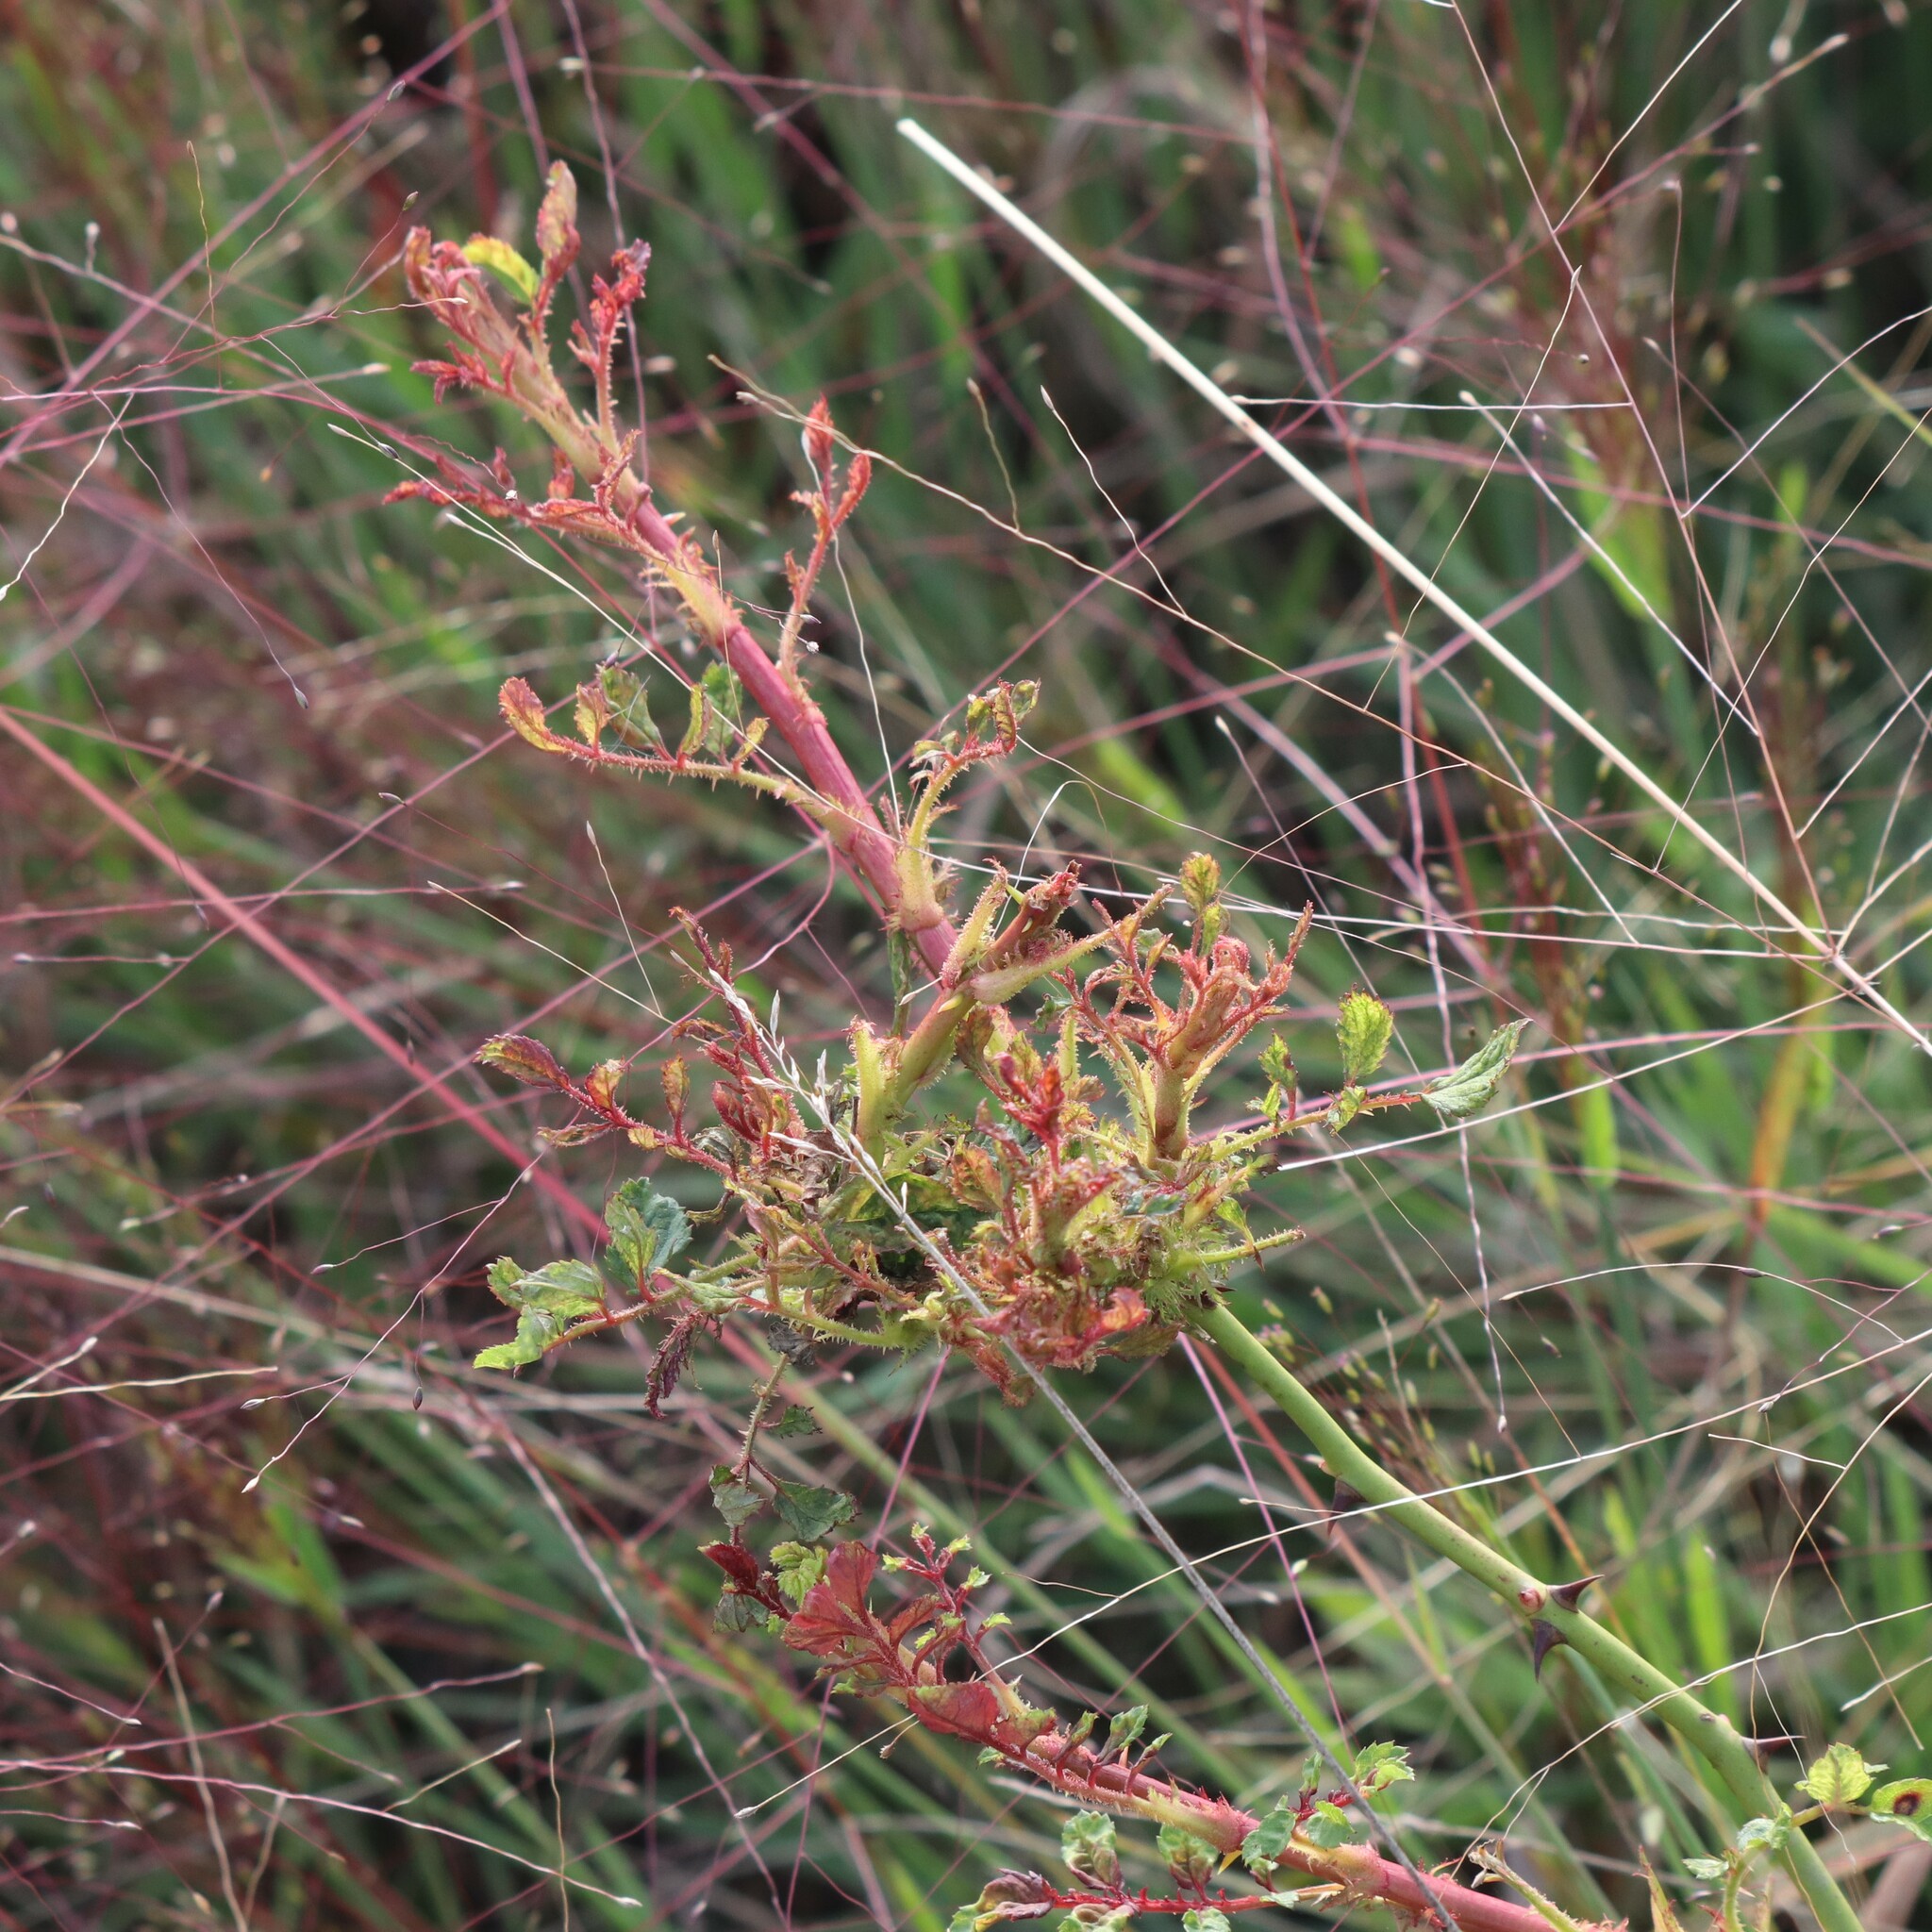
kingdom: Viruses
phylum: Negarnaviricota
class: Ellioviricetes
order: Bunyavirales
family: Fimoviridae
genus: Emaravirus
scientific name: Emaravirus rosae
